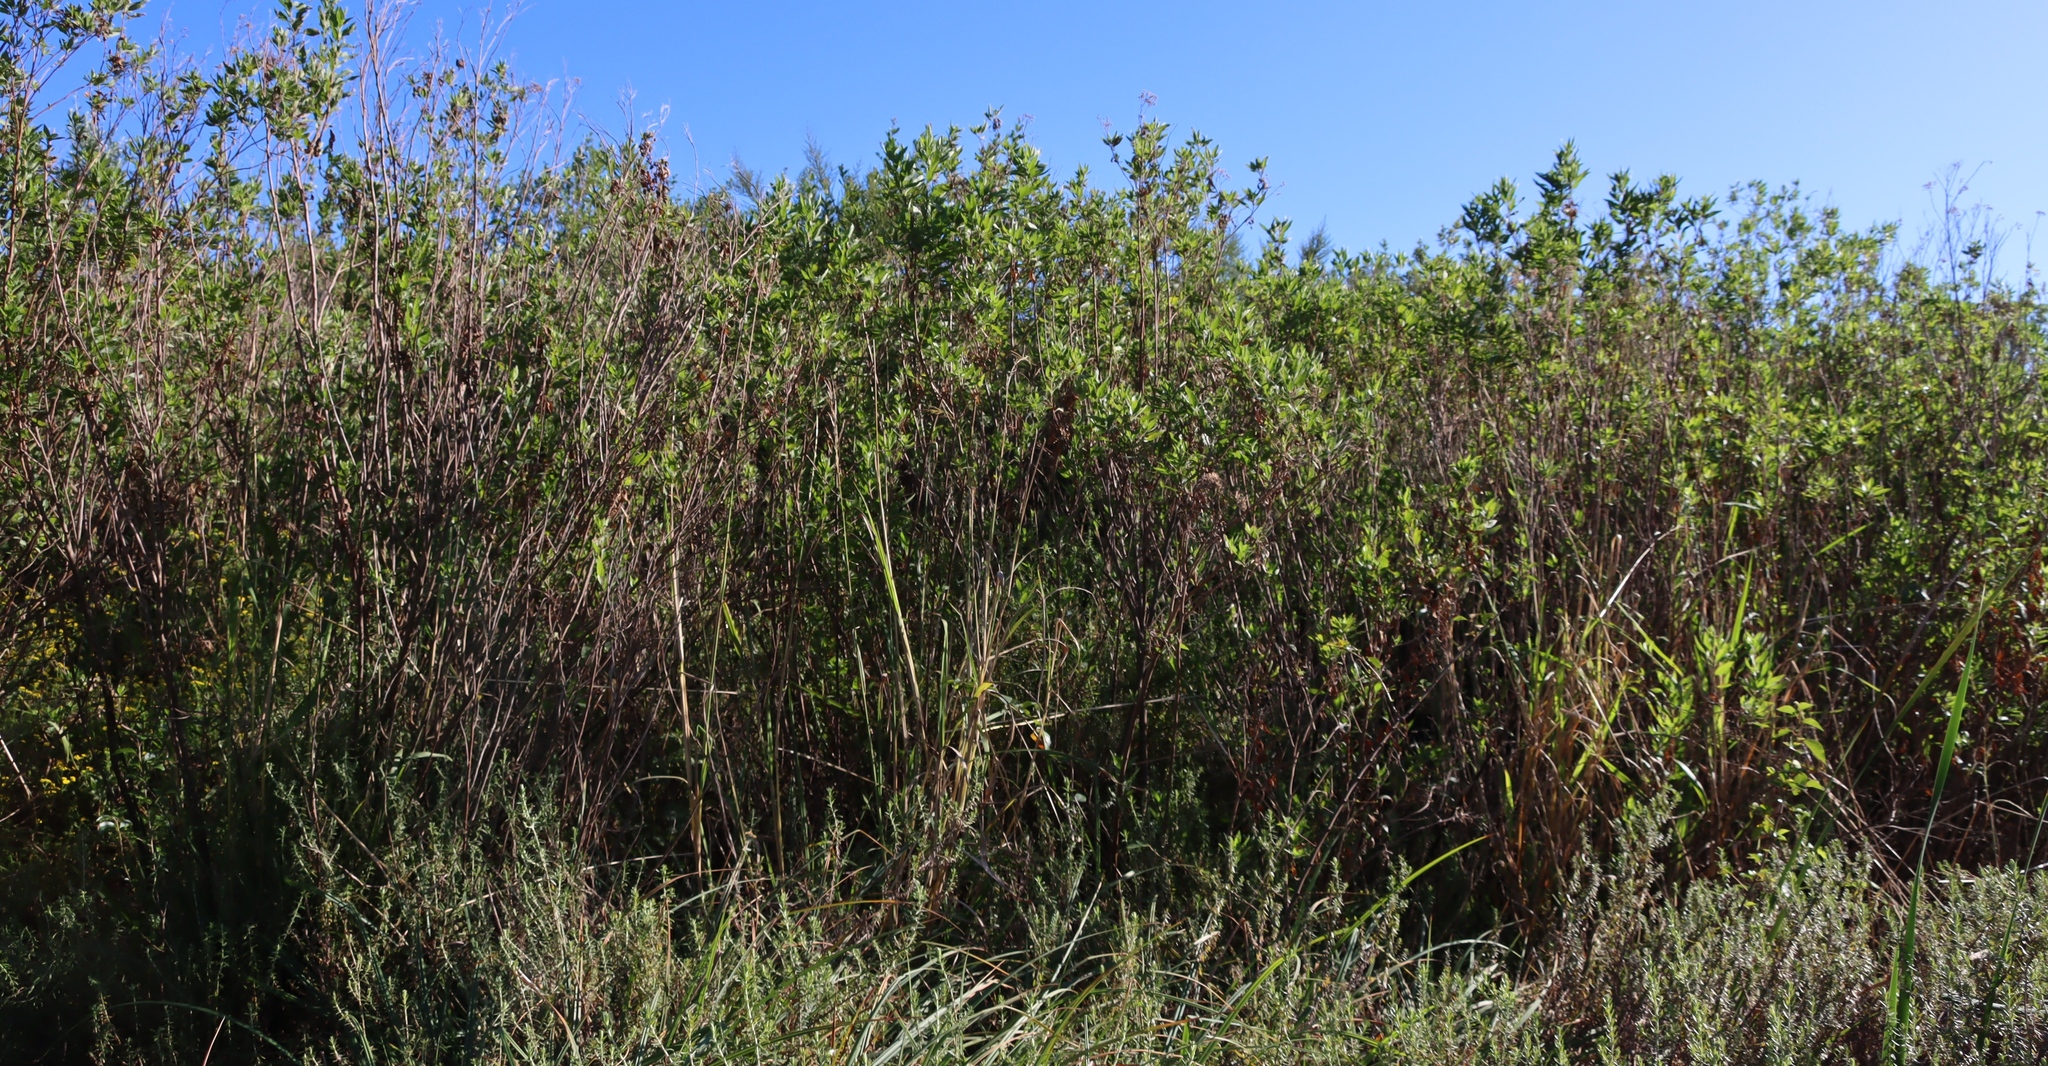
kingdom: Plantae
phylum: Tracheophyta
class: Magnoliopsida
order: Asterales
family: Asteraceae
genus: Nidorella
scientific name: Nidorella ivifolia
